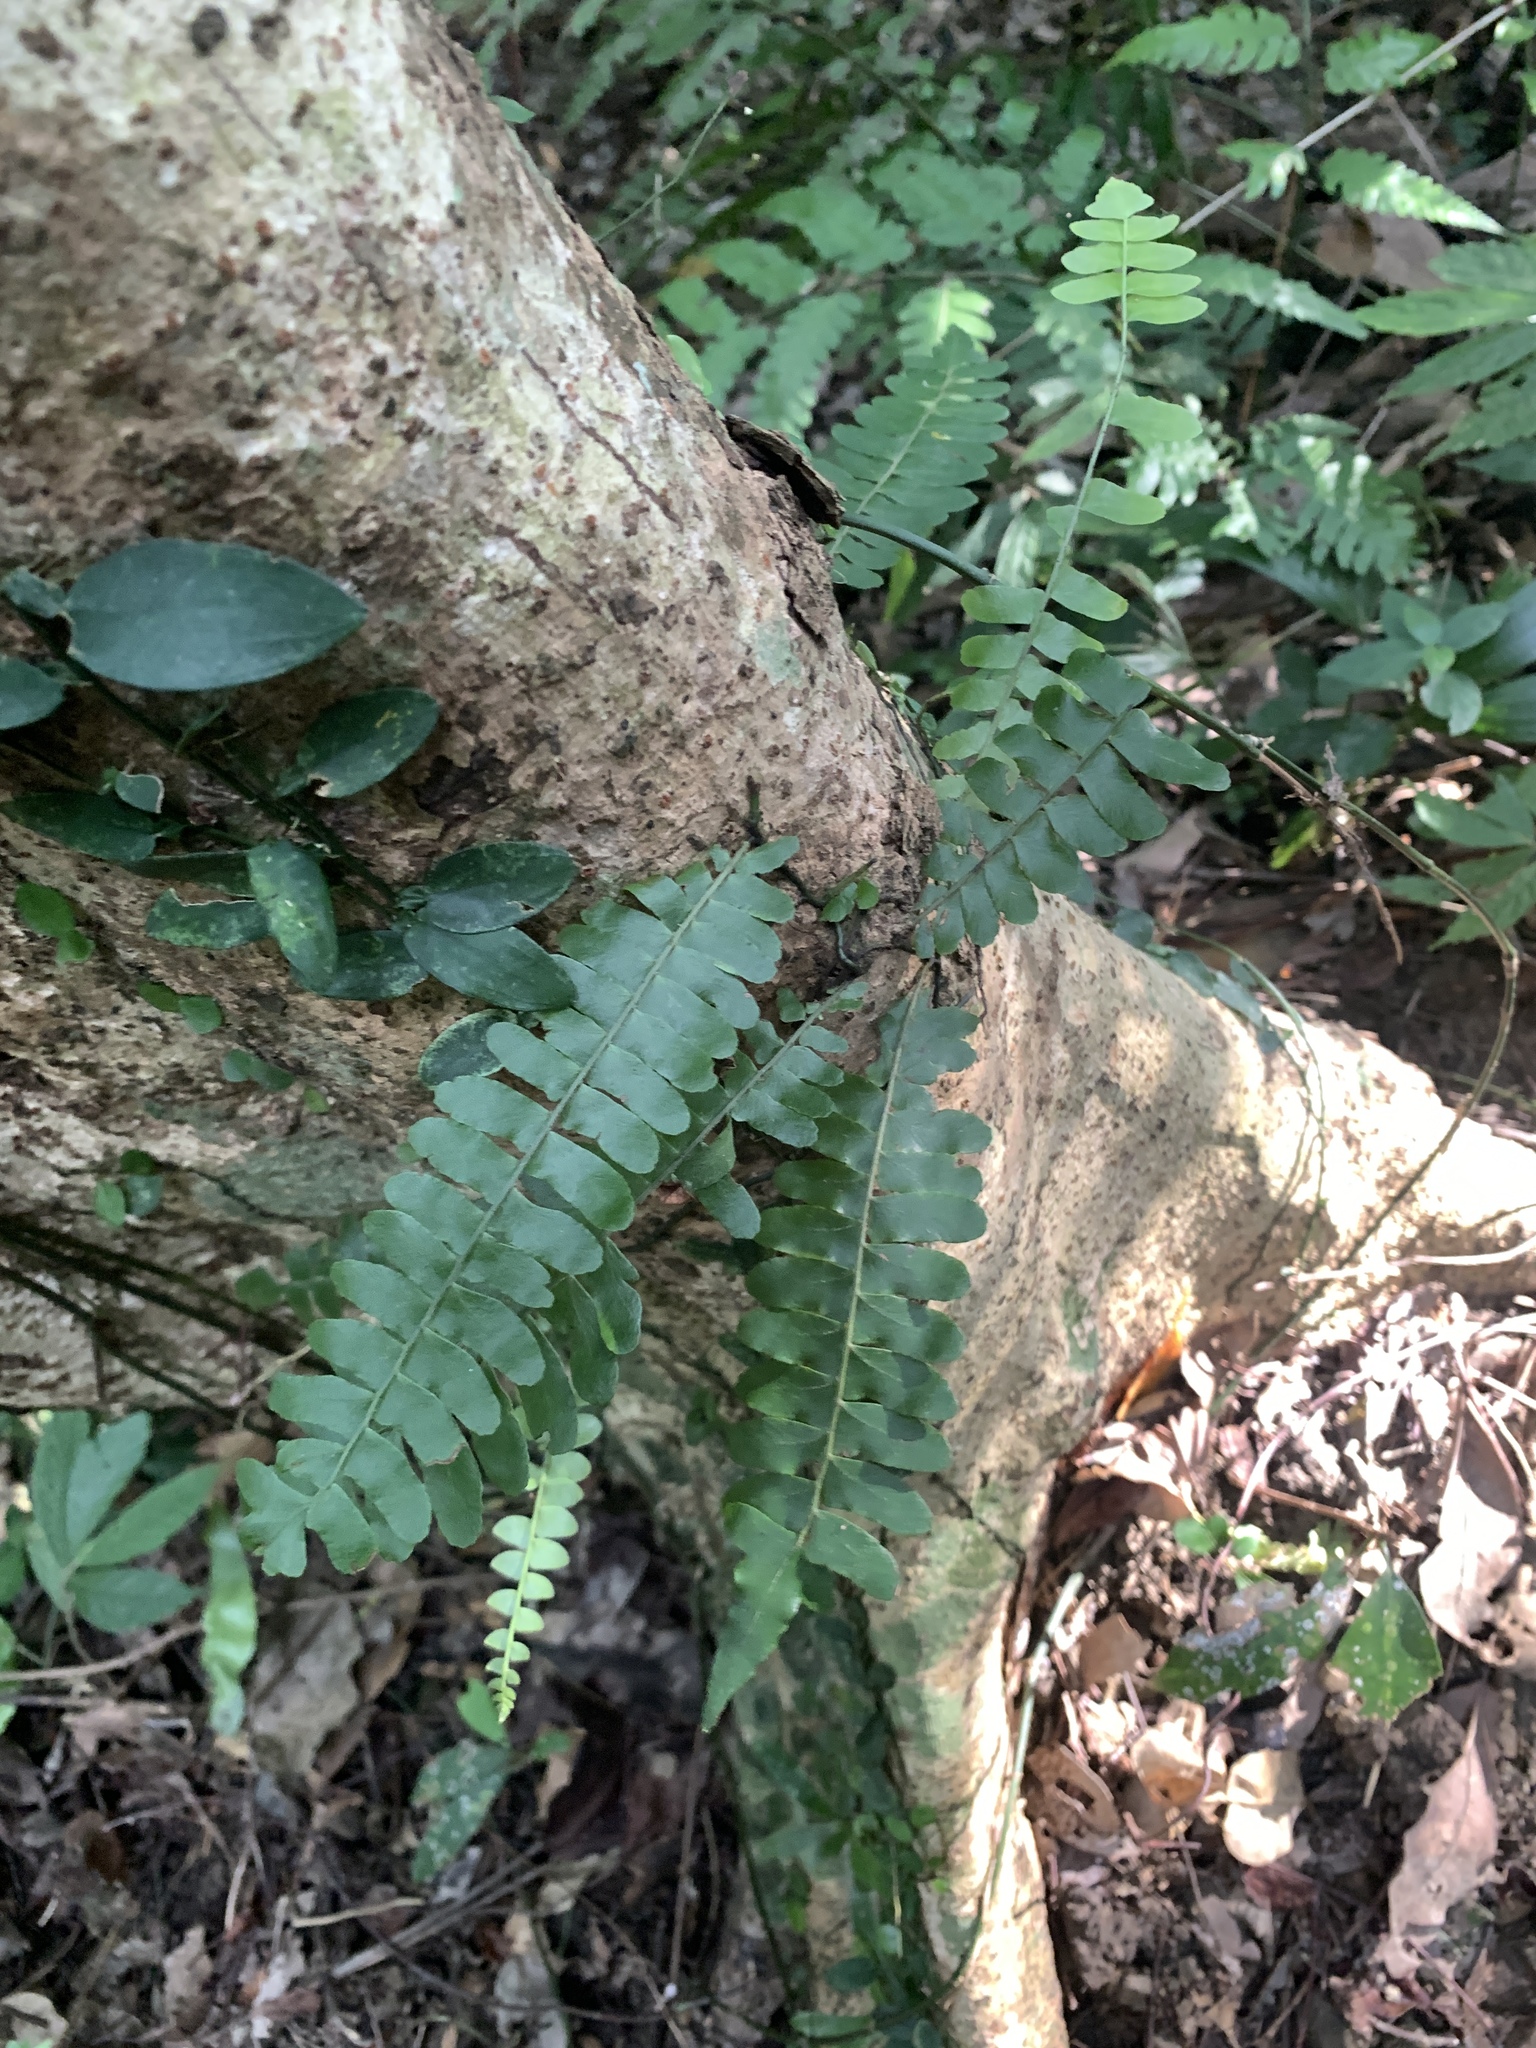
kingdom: Plantae
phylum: Tracheophyta
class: Polypodiopsida
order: Polypodiales
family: Tectariaceae
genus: Arthropteris
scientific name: Arthropteris palisotii
